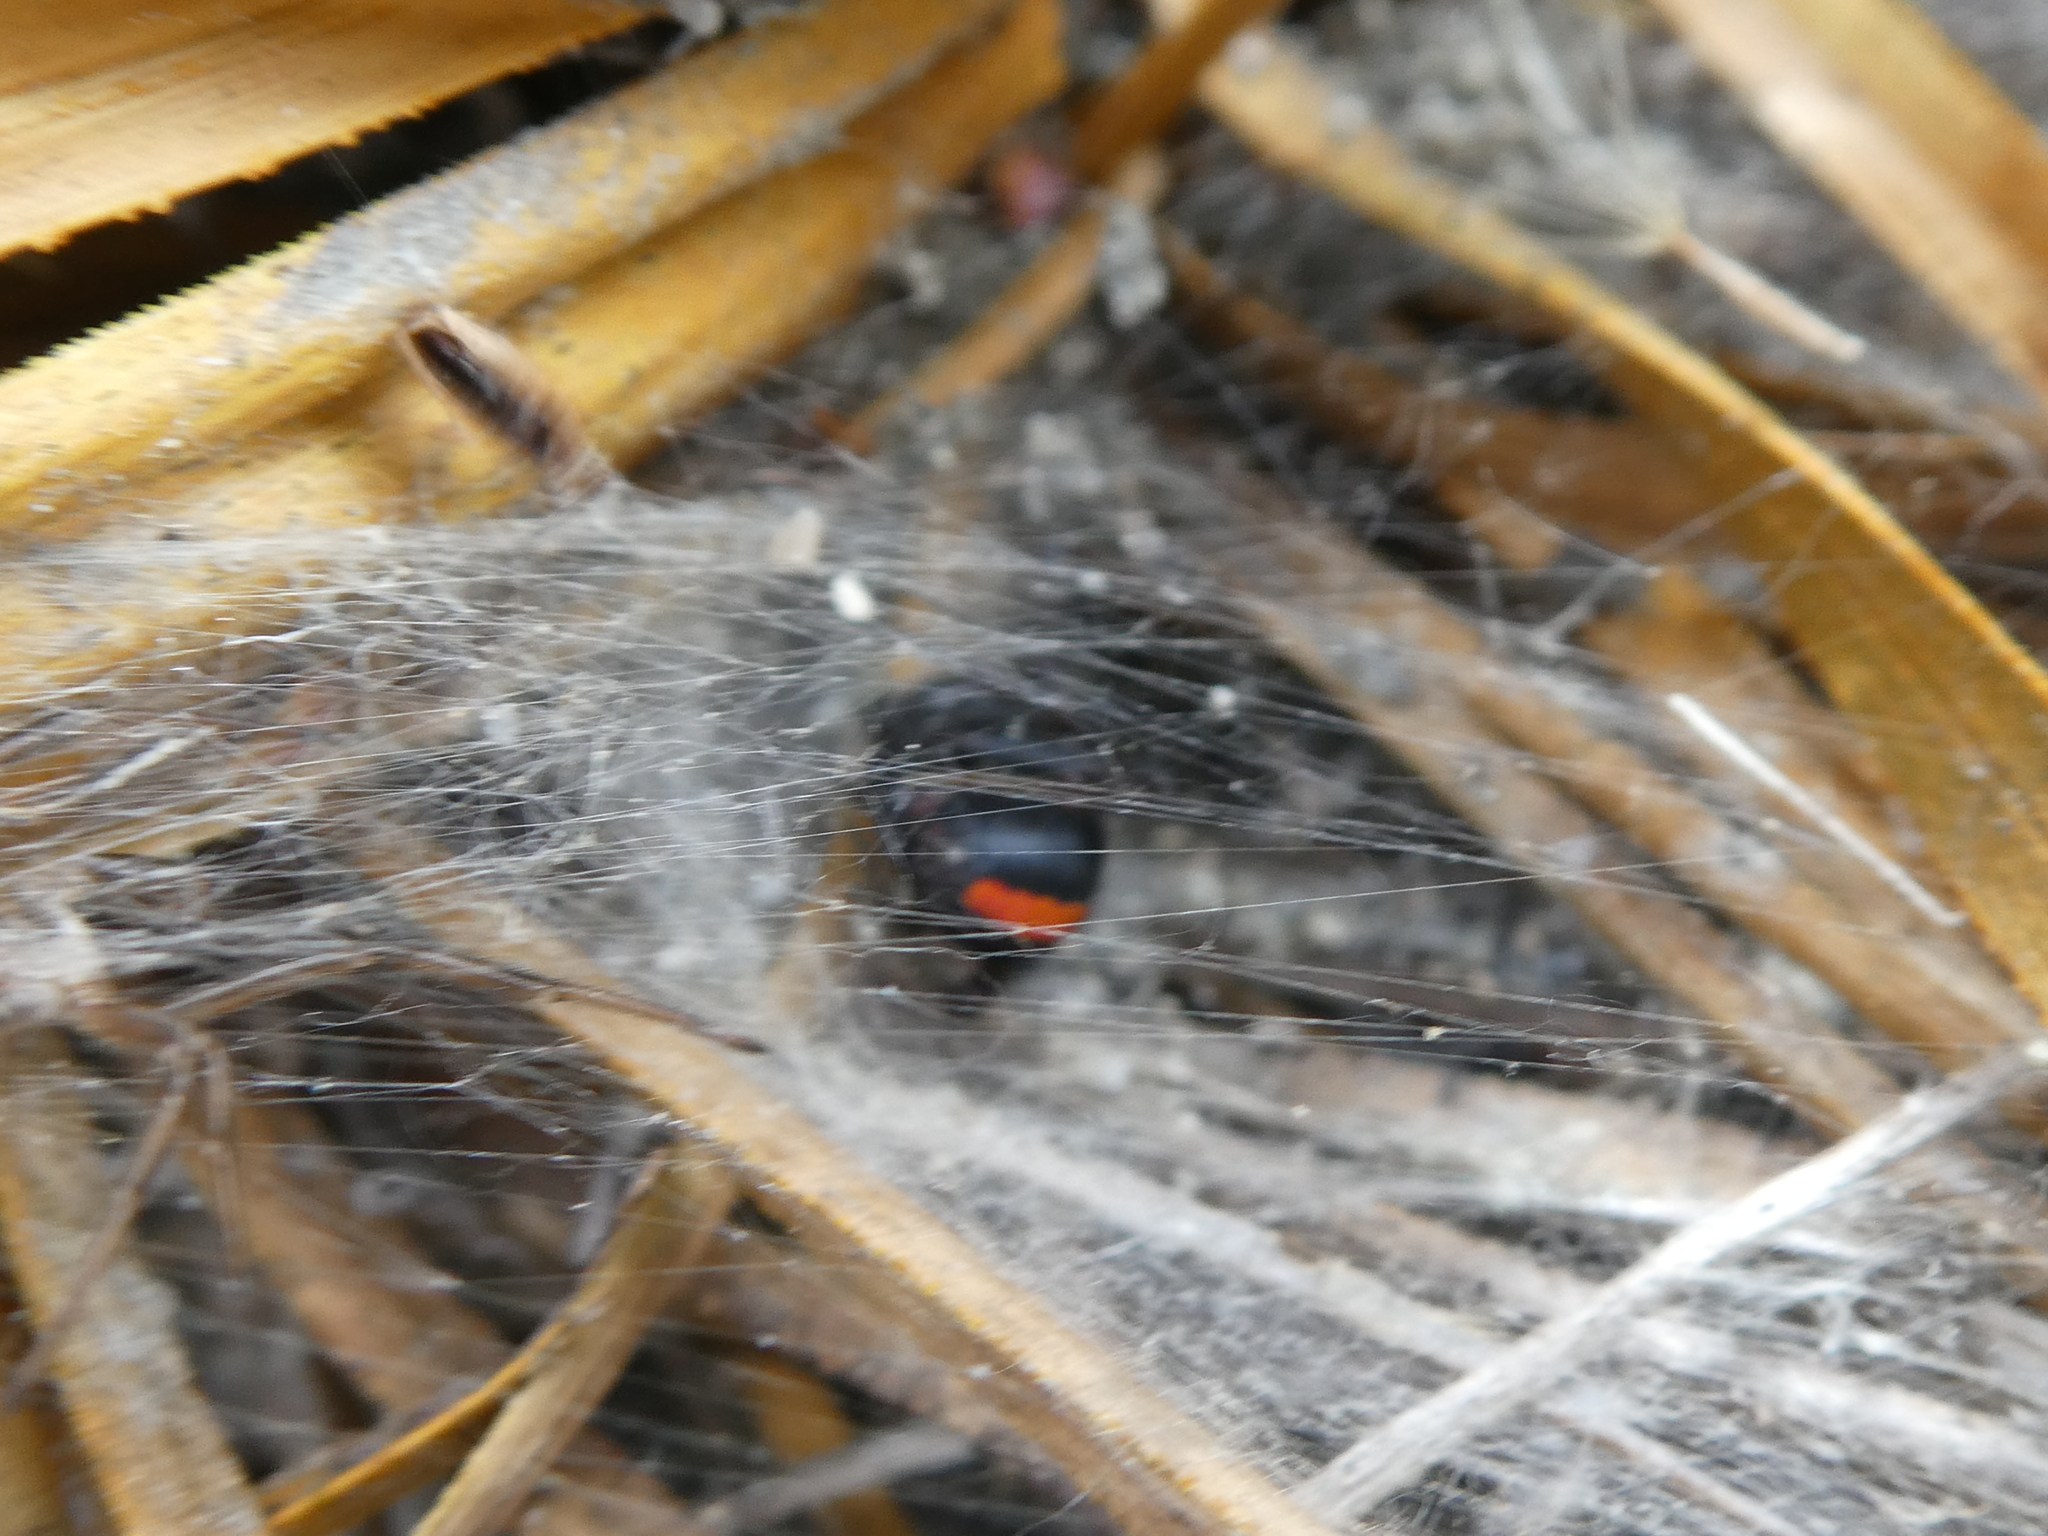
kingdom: Animalia
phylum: Arthropoda
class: Arachnida
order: Araneae
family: Theridiidae
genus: Latrodectus
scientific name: Latrodectus katipo
